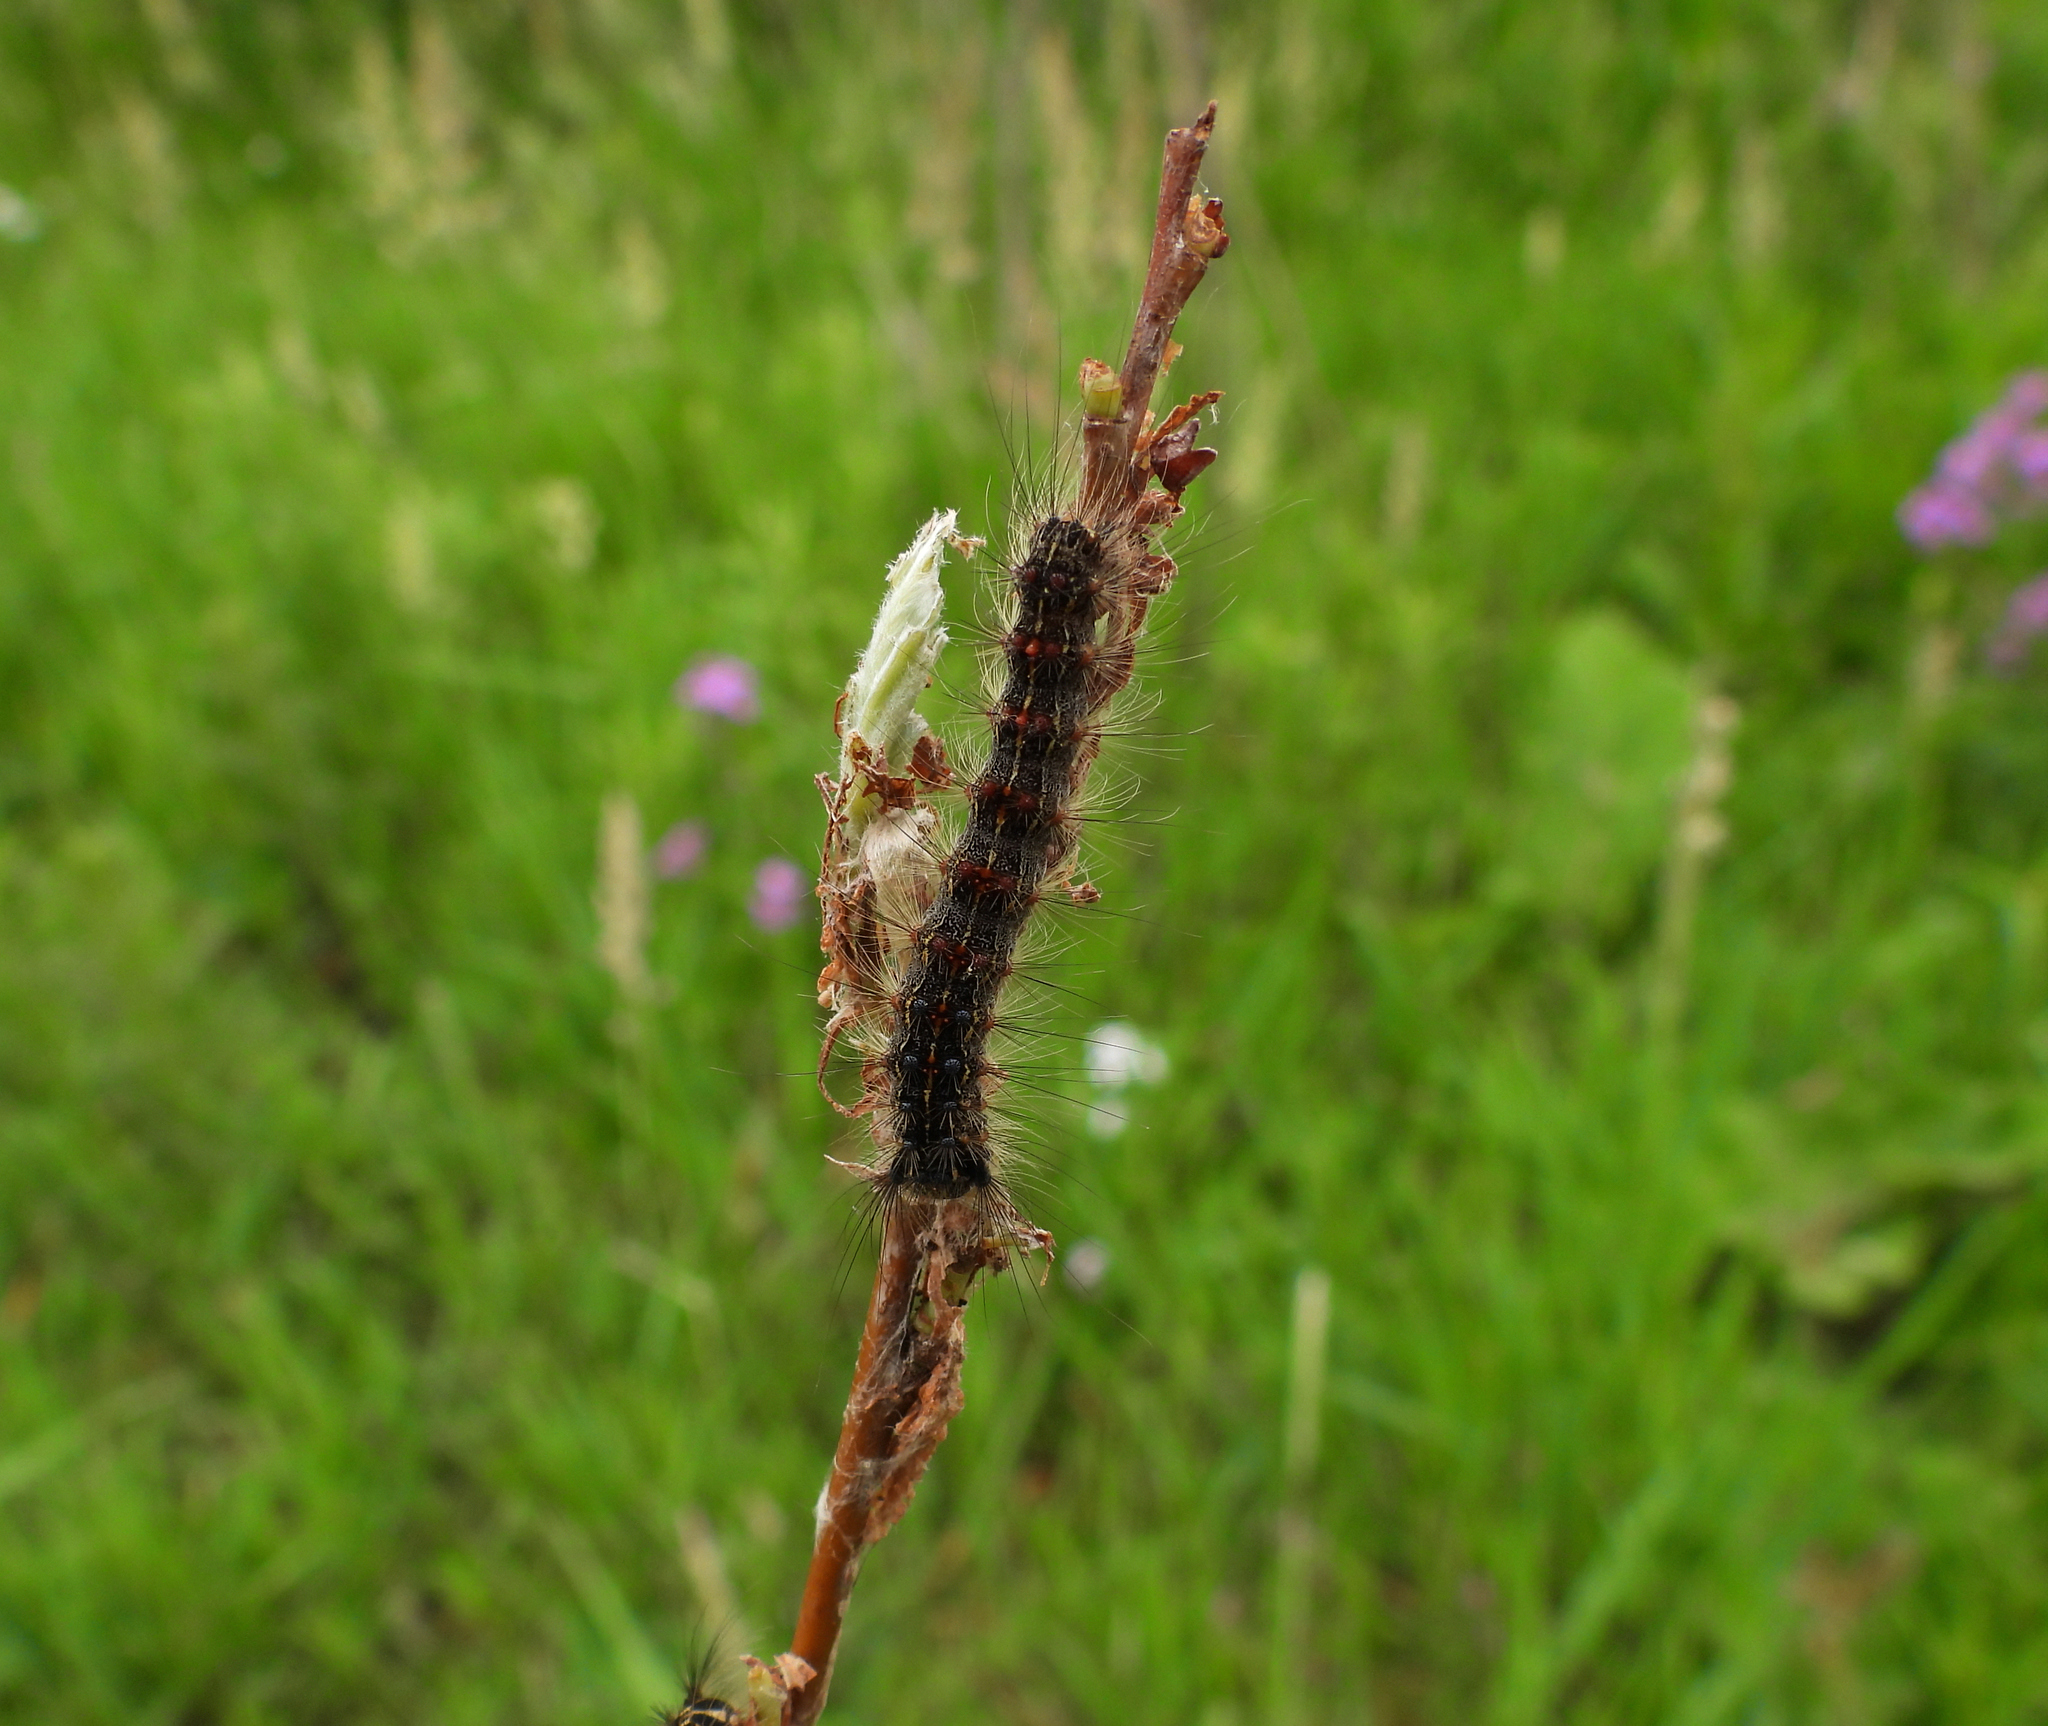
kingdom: Animalia
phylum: Arthropoda
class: Insecta
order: Lepidoptera
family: Erebidae
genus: Lymantria
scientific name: Lymantria dispar
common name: Gypsy moth
